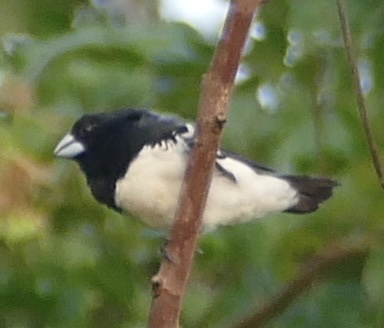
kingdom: Animalia
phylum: Chordata
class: Aves
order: Passeriformes
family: Estrildidae
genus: Lonchura
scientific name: Lonchura bicolor
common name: Black-and-white mannikin
